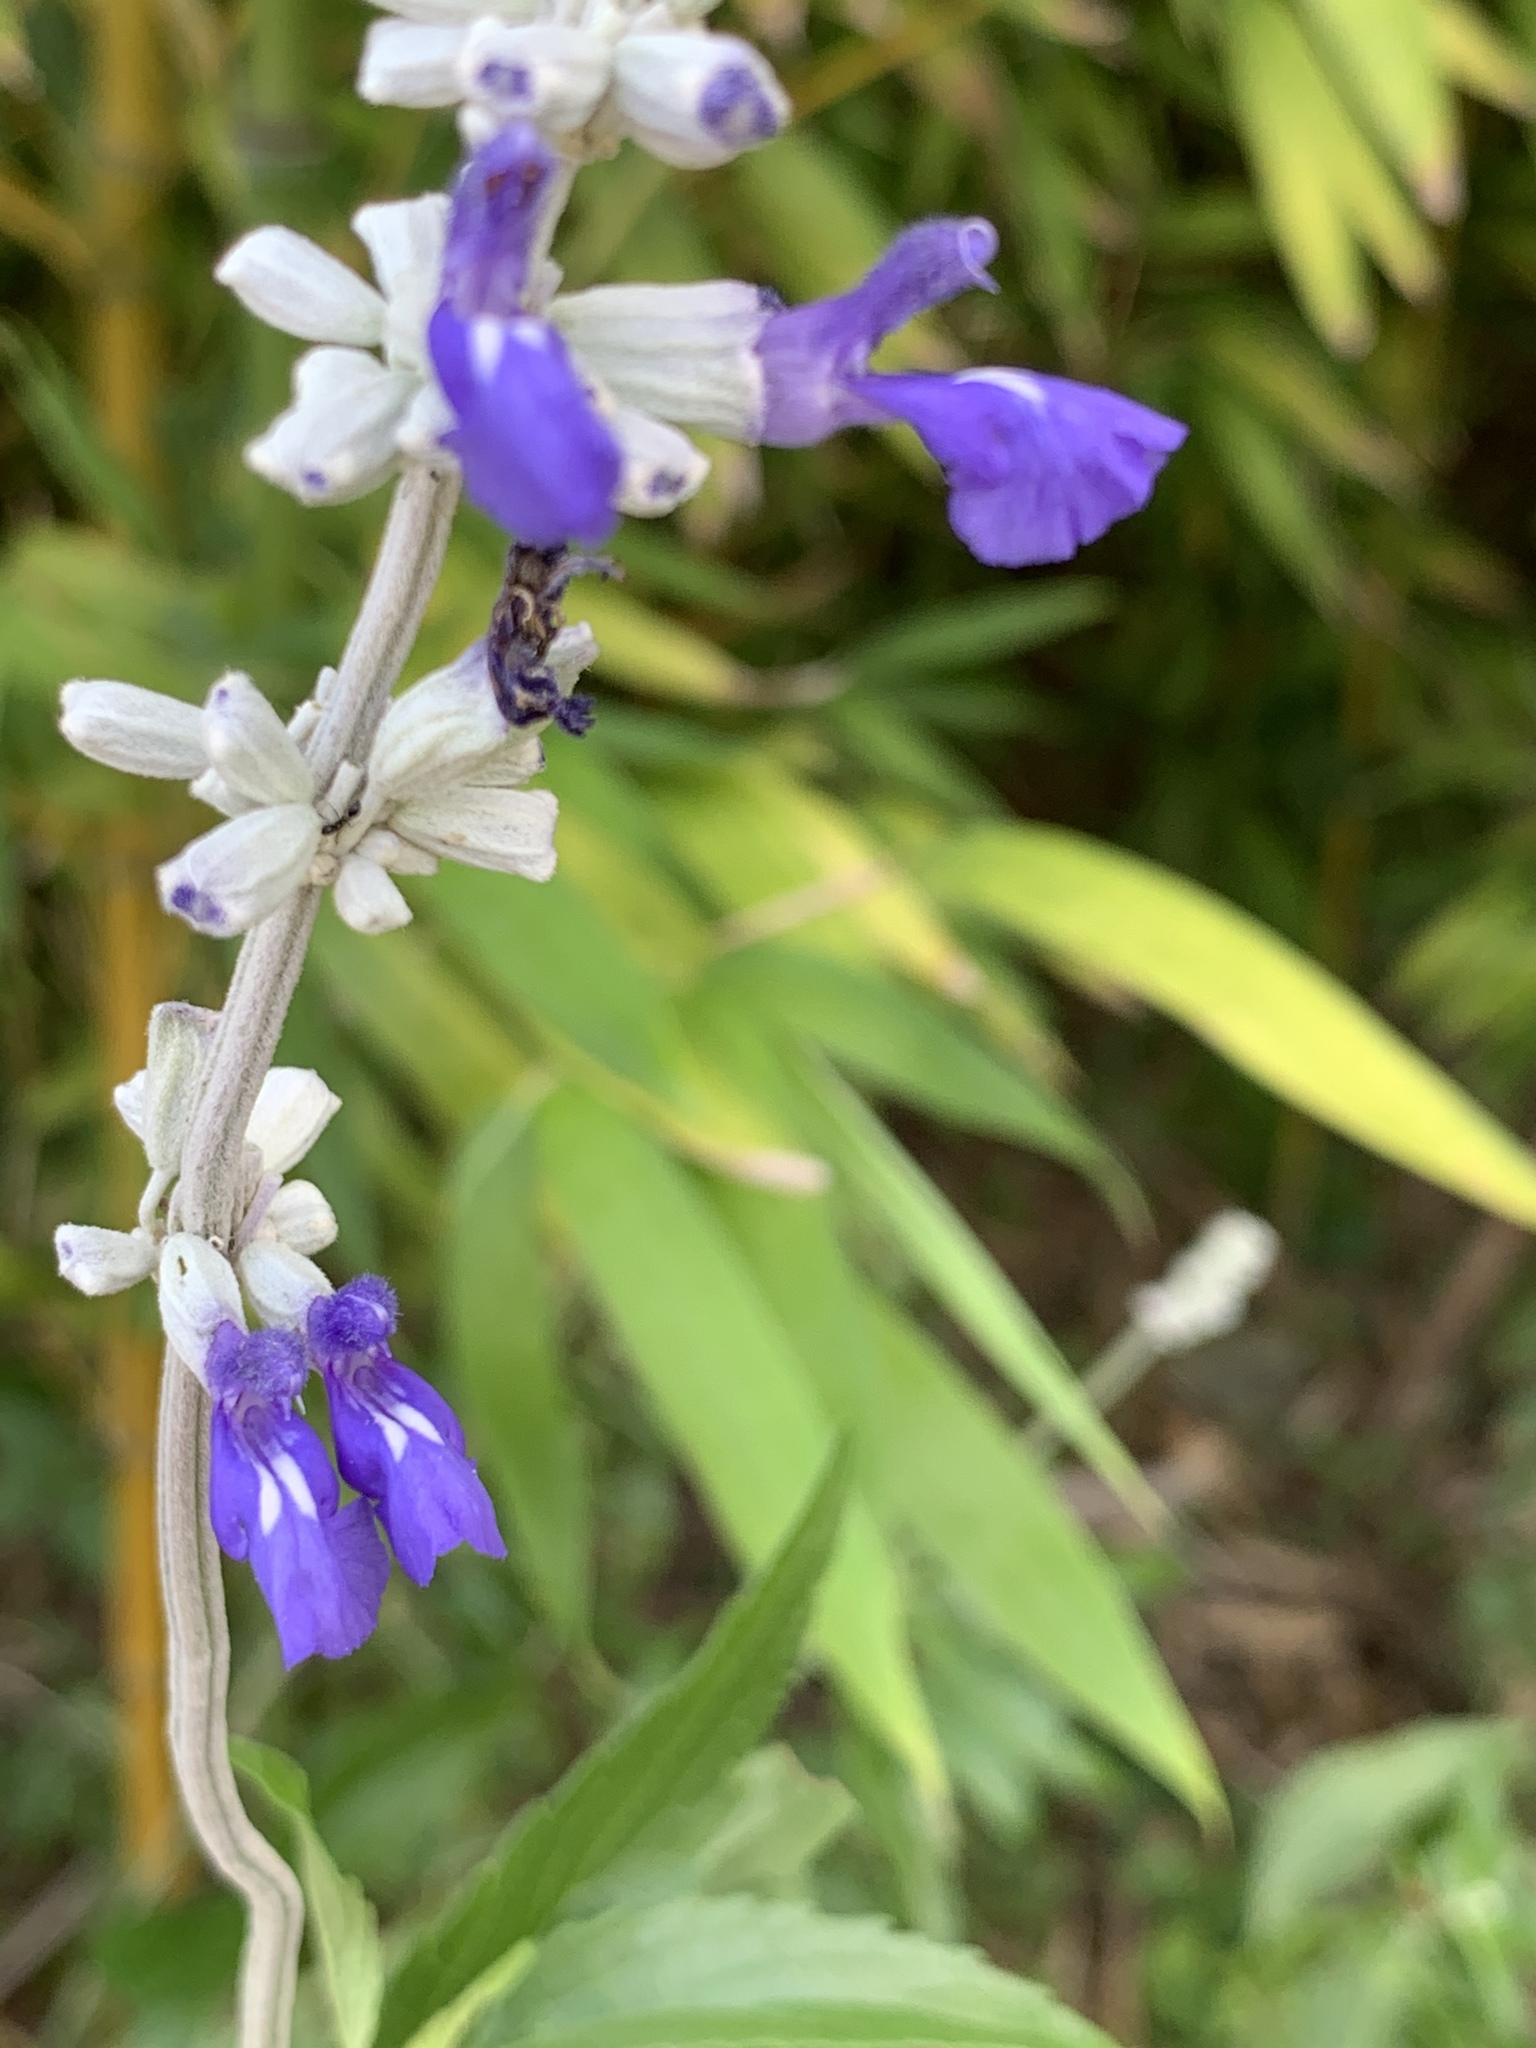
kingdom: Plantae
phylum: Tracheophyta
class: Magnoliopsida
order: Lamiales
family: Lamiaceae
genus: Salvia
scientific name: Salvia farinacea
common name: Mealy sage
